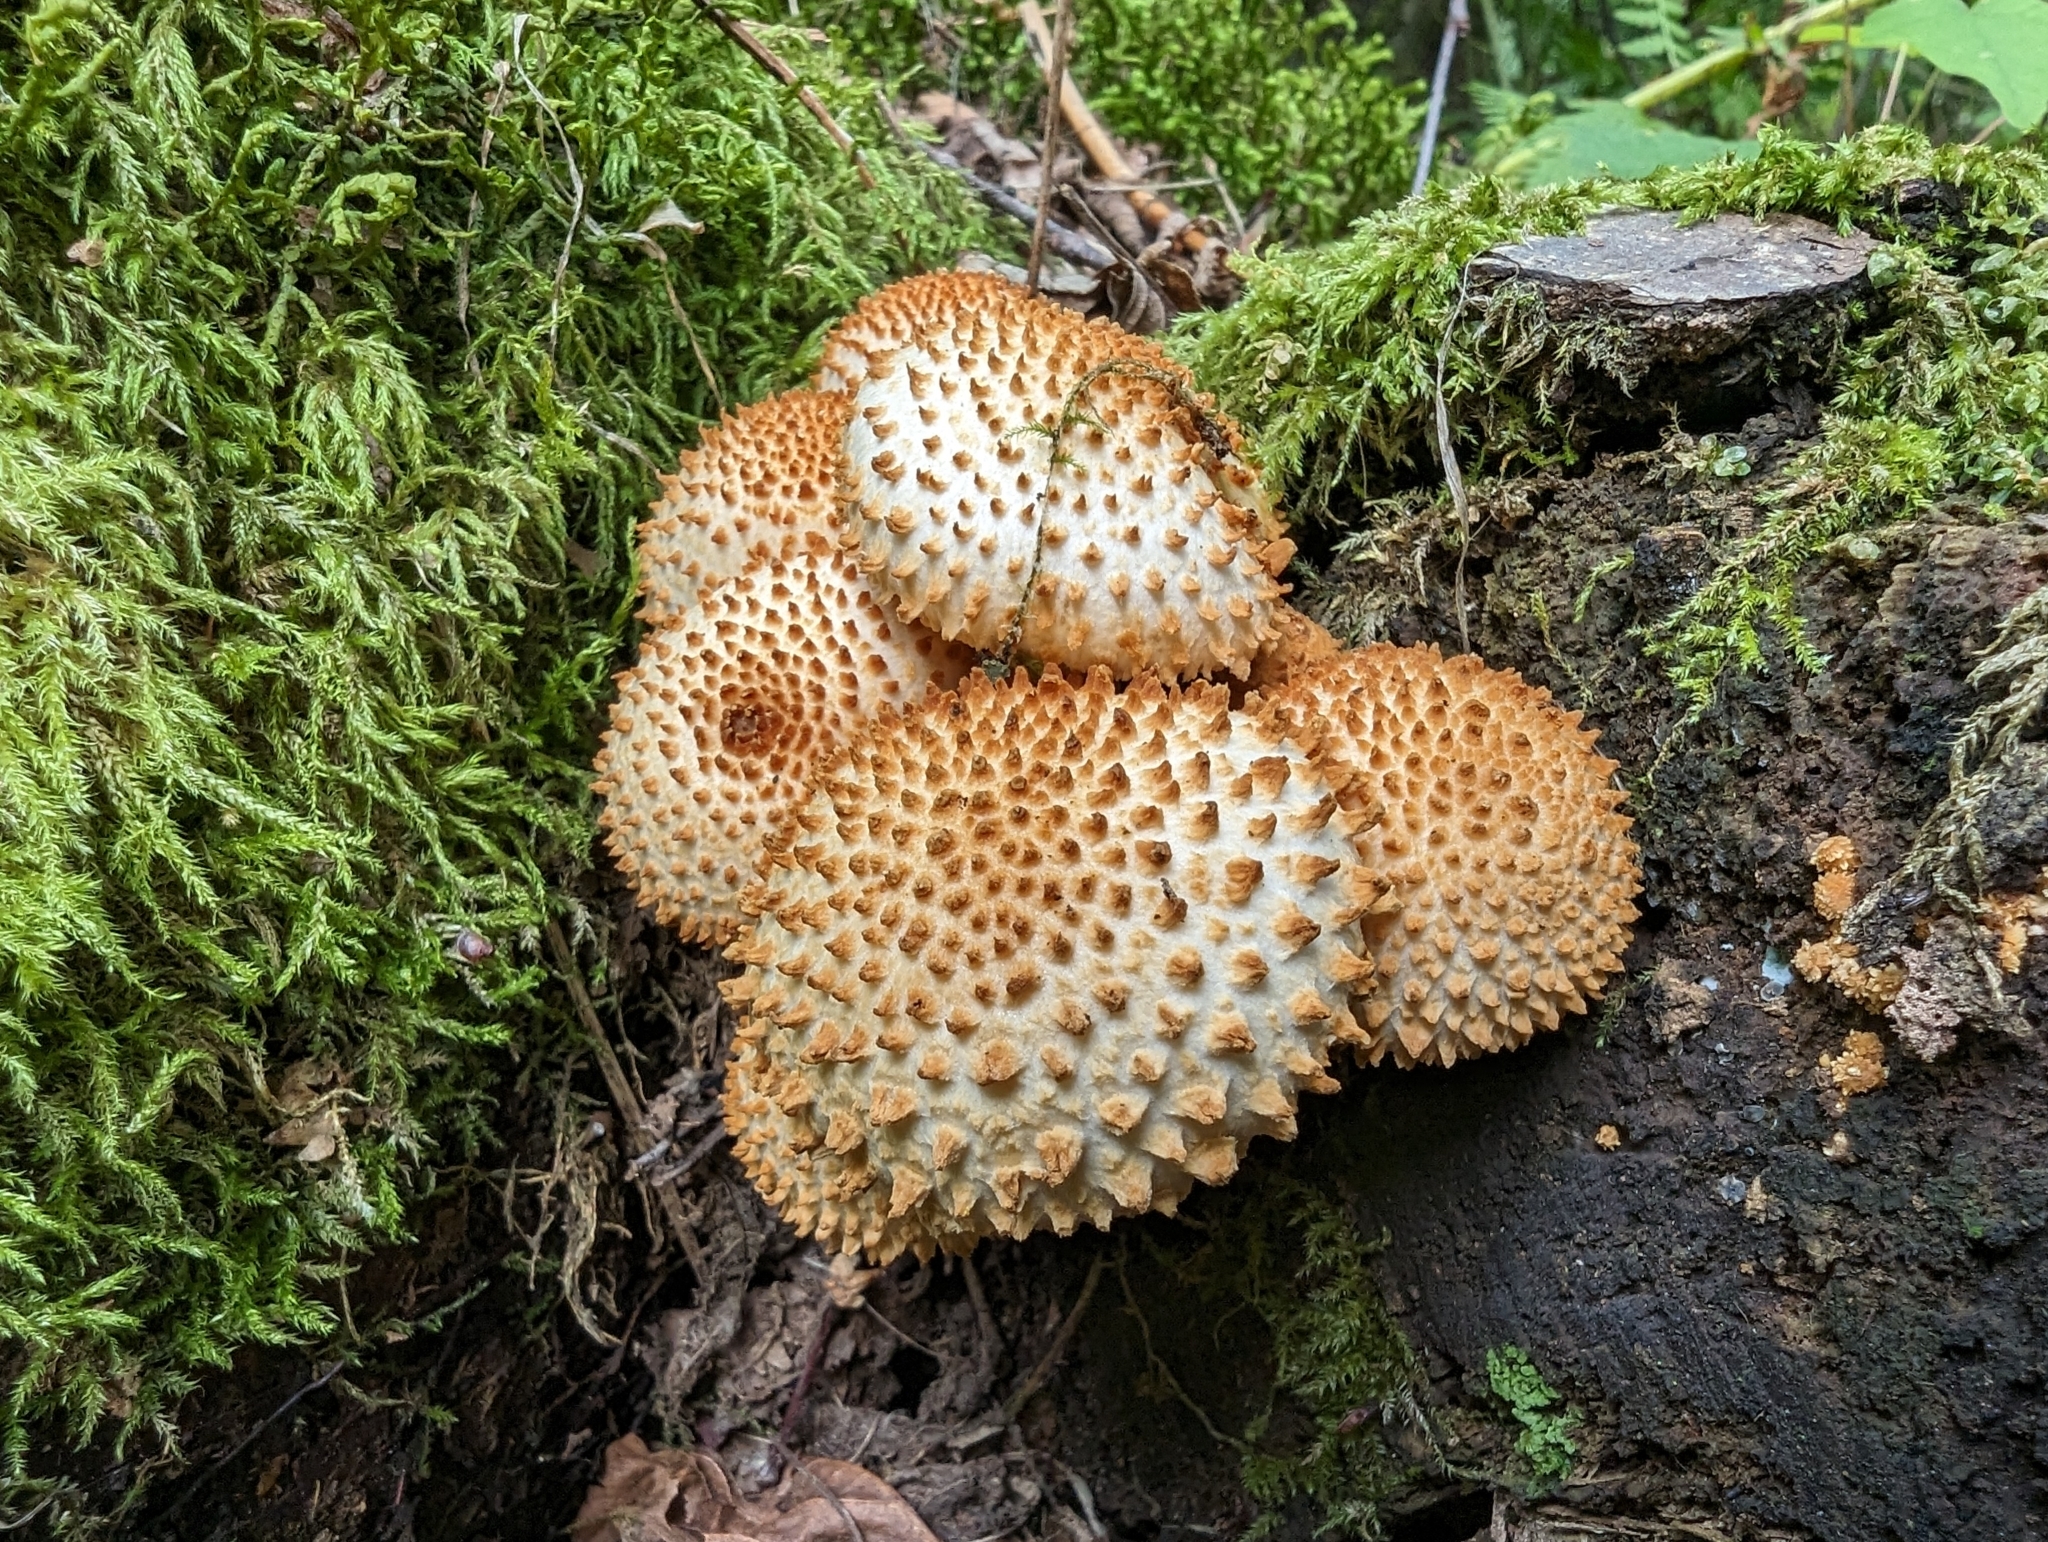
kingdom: Fungi
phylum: Basidiomycota
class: Agaricomycetes
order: Agaricales
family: Strophariaceae
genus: Pholiota
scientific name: Pholiota squarrosoides
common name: Sharp-scaly pholiota
